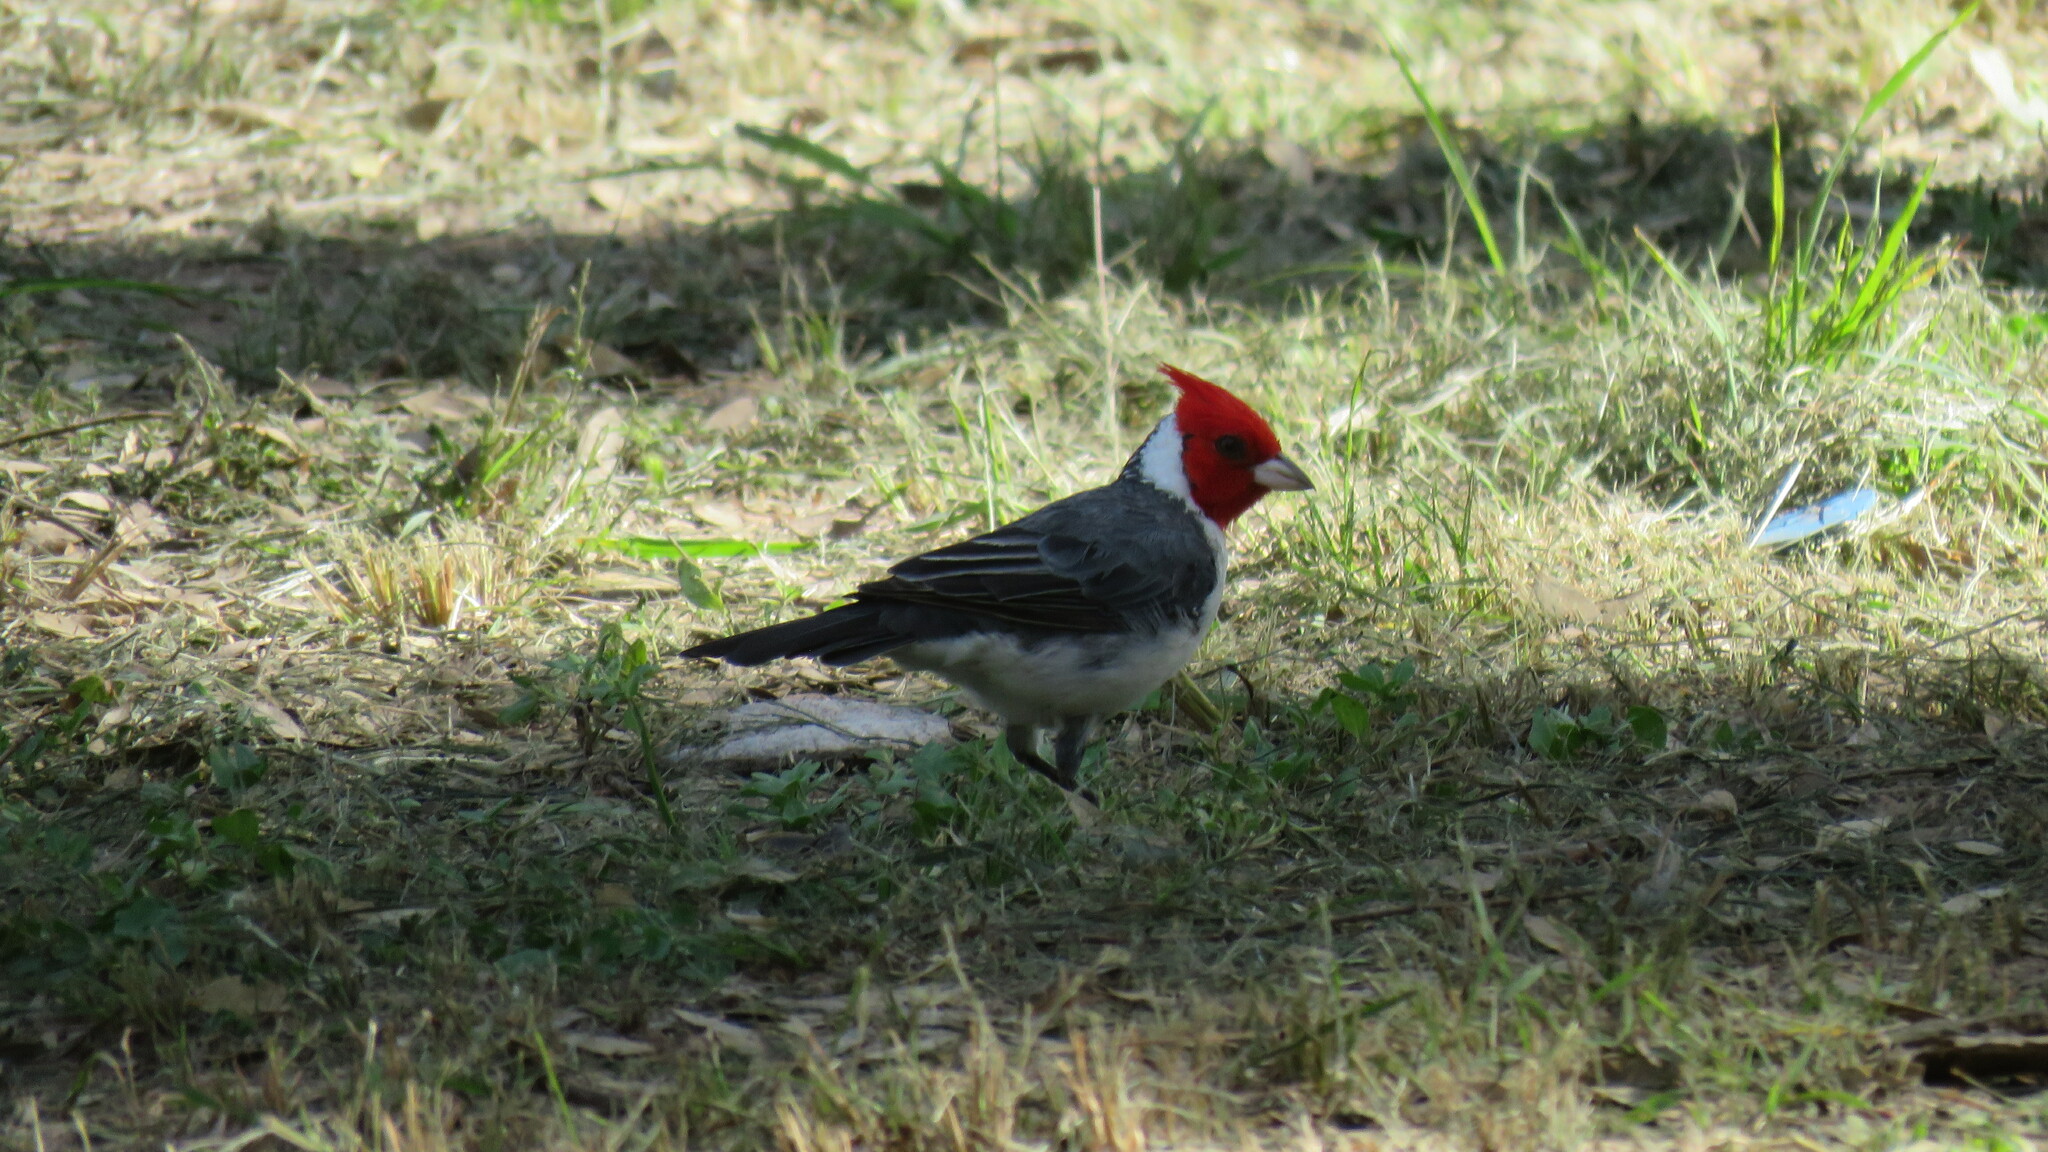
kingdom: Animalia
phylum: Chordata
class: Aves
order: Passeriformes
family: Thraupidae
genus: Paroaria
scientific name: Paroaria coronata
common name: Red-crested cardinal
